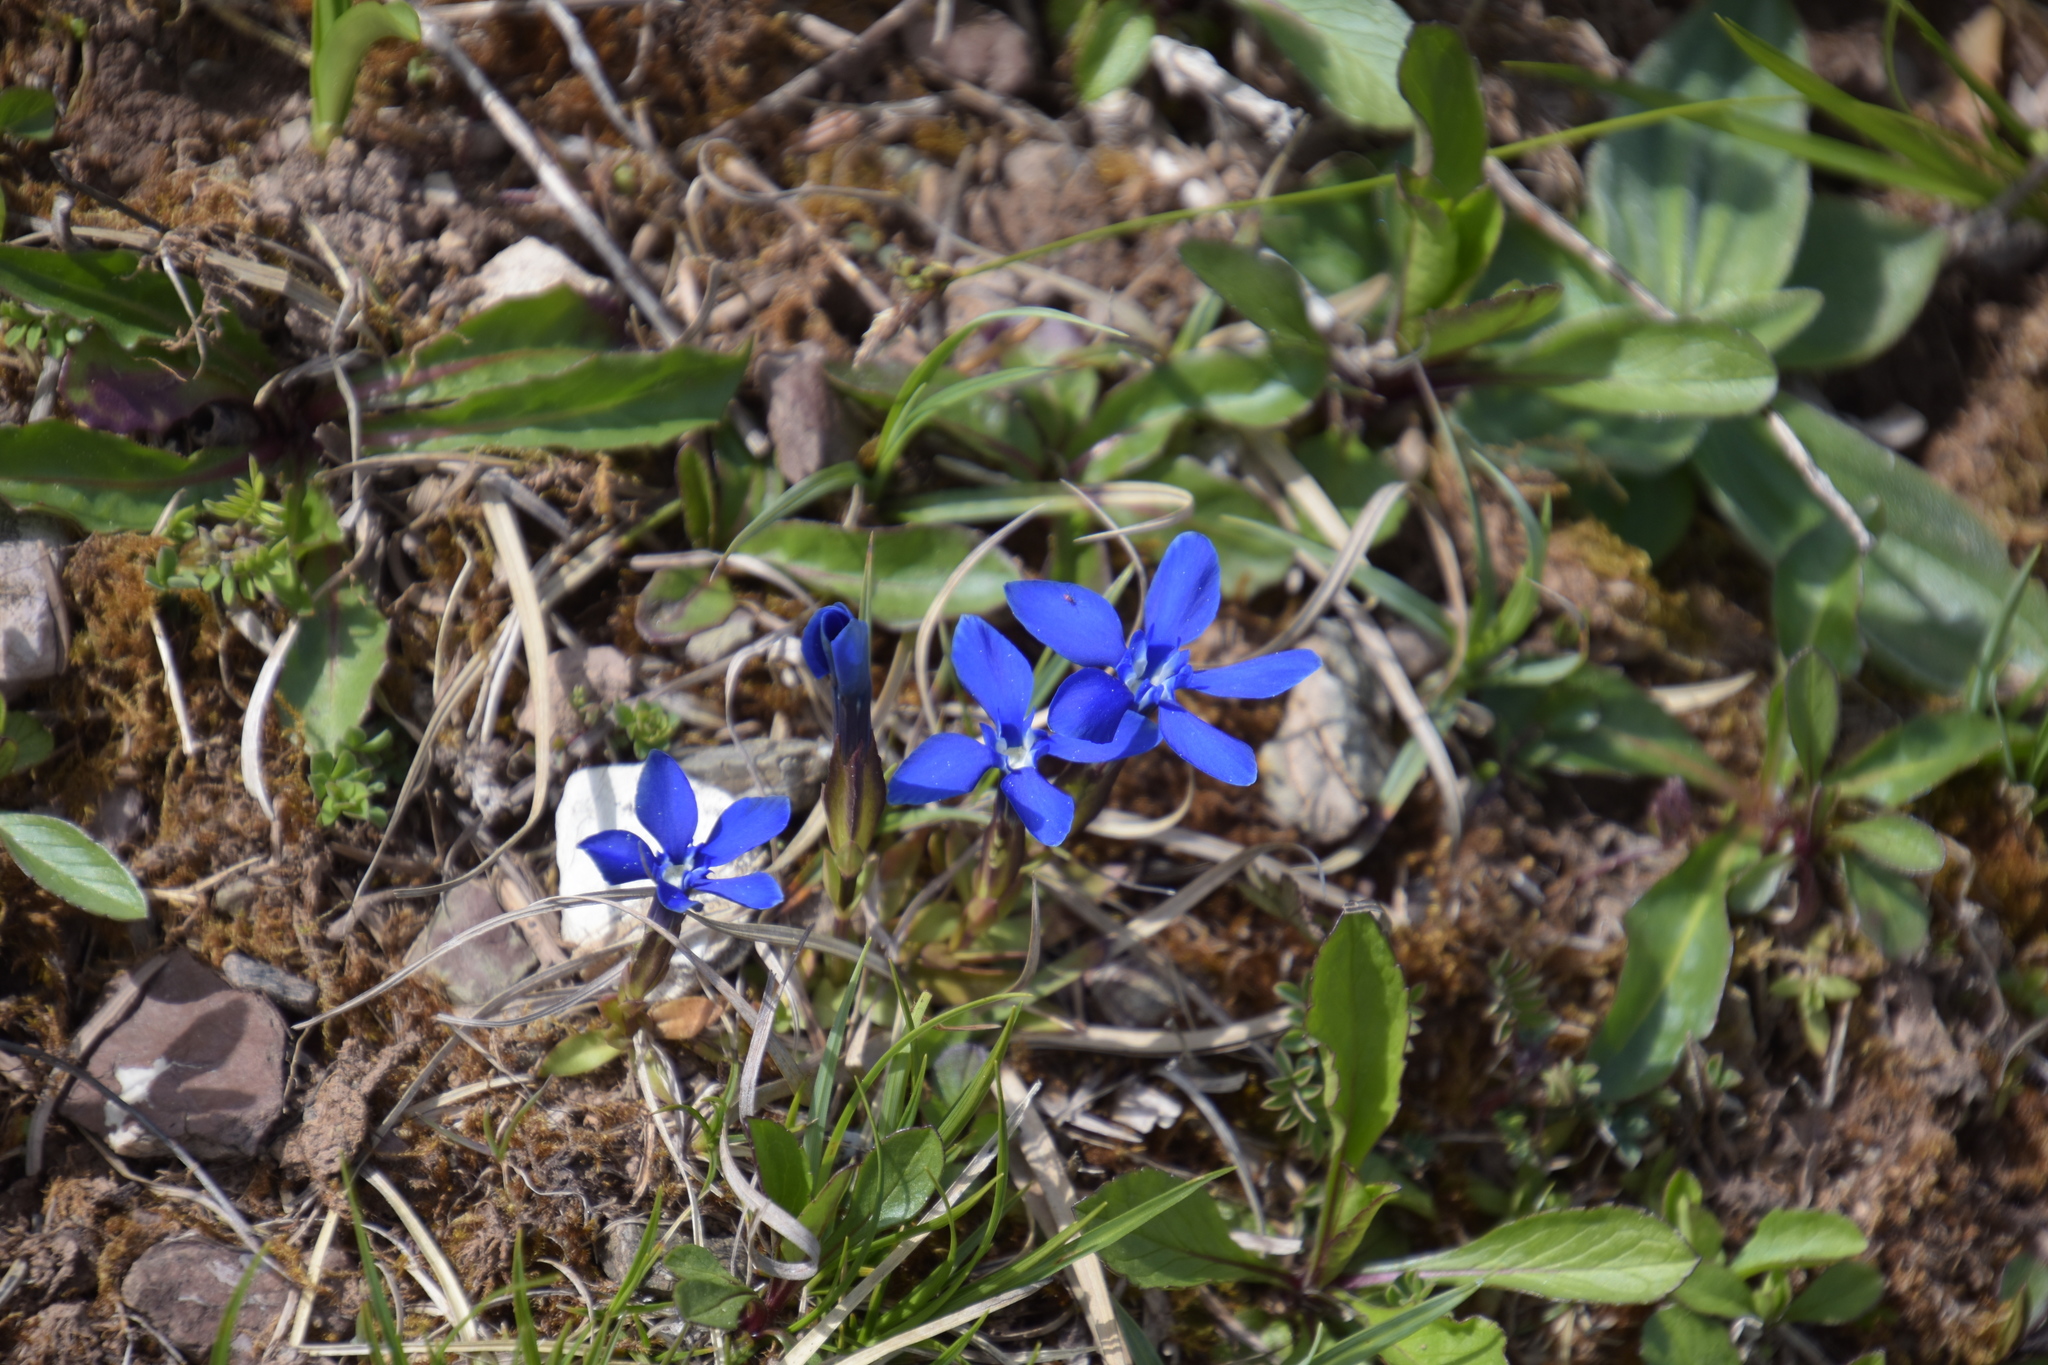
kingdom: Plantae
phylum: Tracheophyta
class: Magnoliopsida
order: Gentianales
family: Gentianaceae
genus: Gentiana
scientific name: Gentiana verna
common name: Spring gentian
